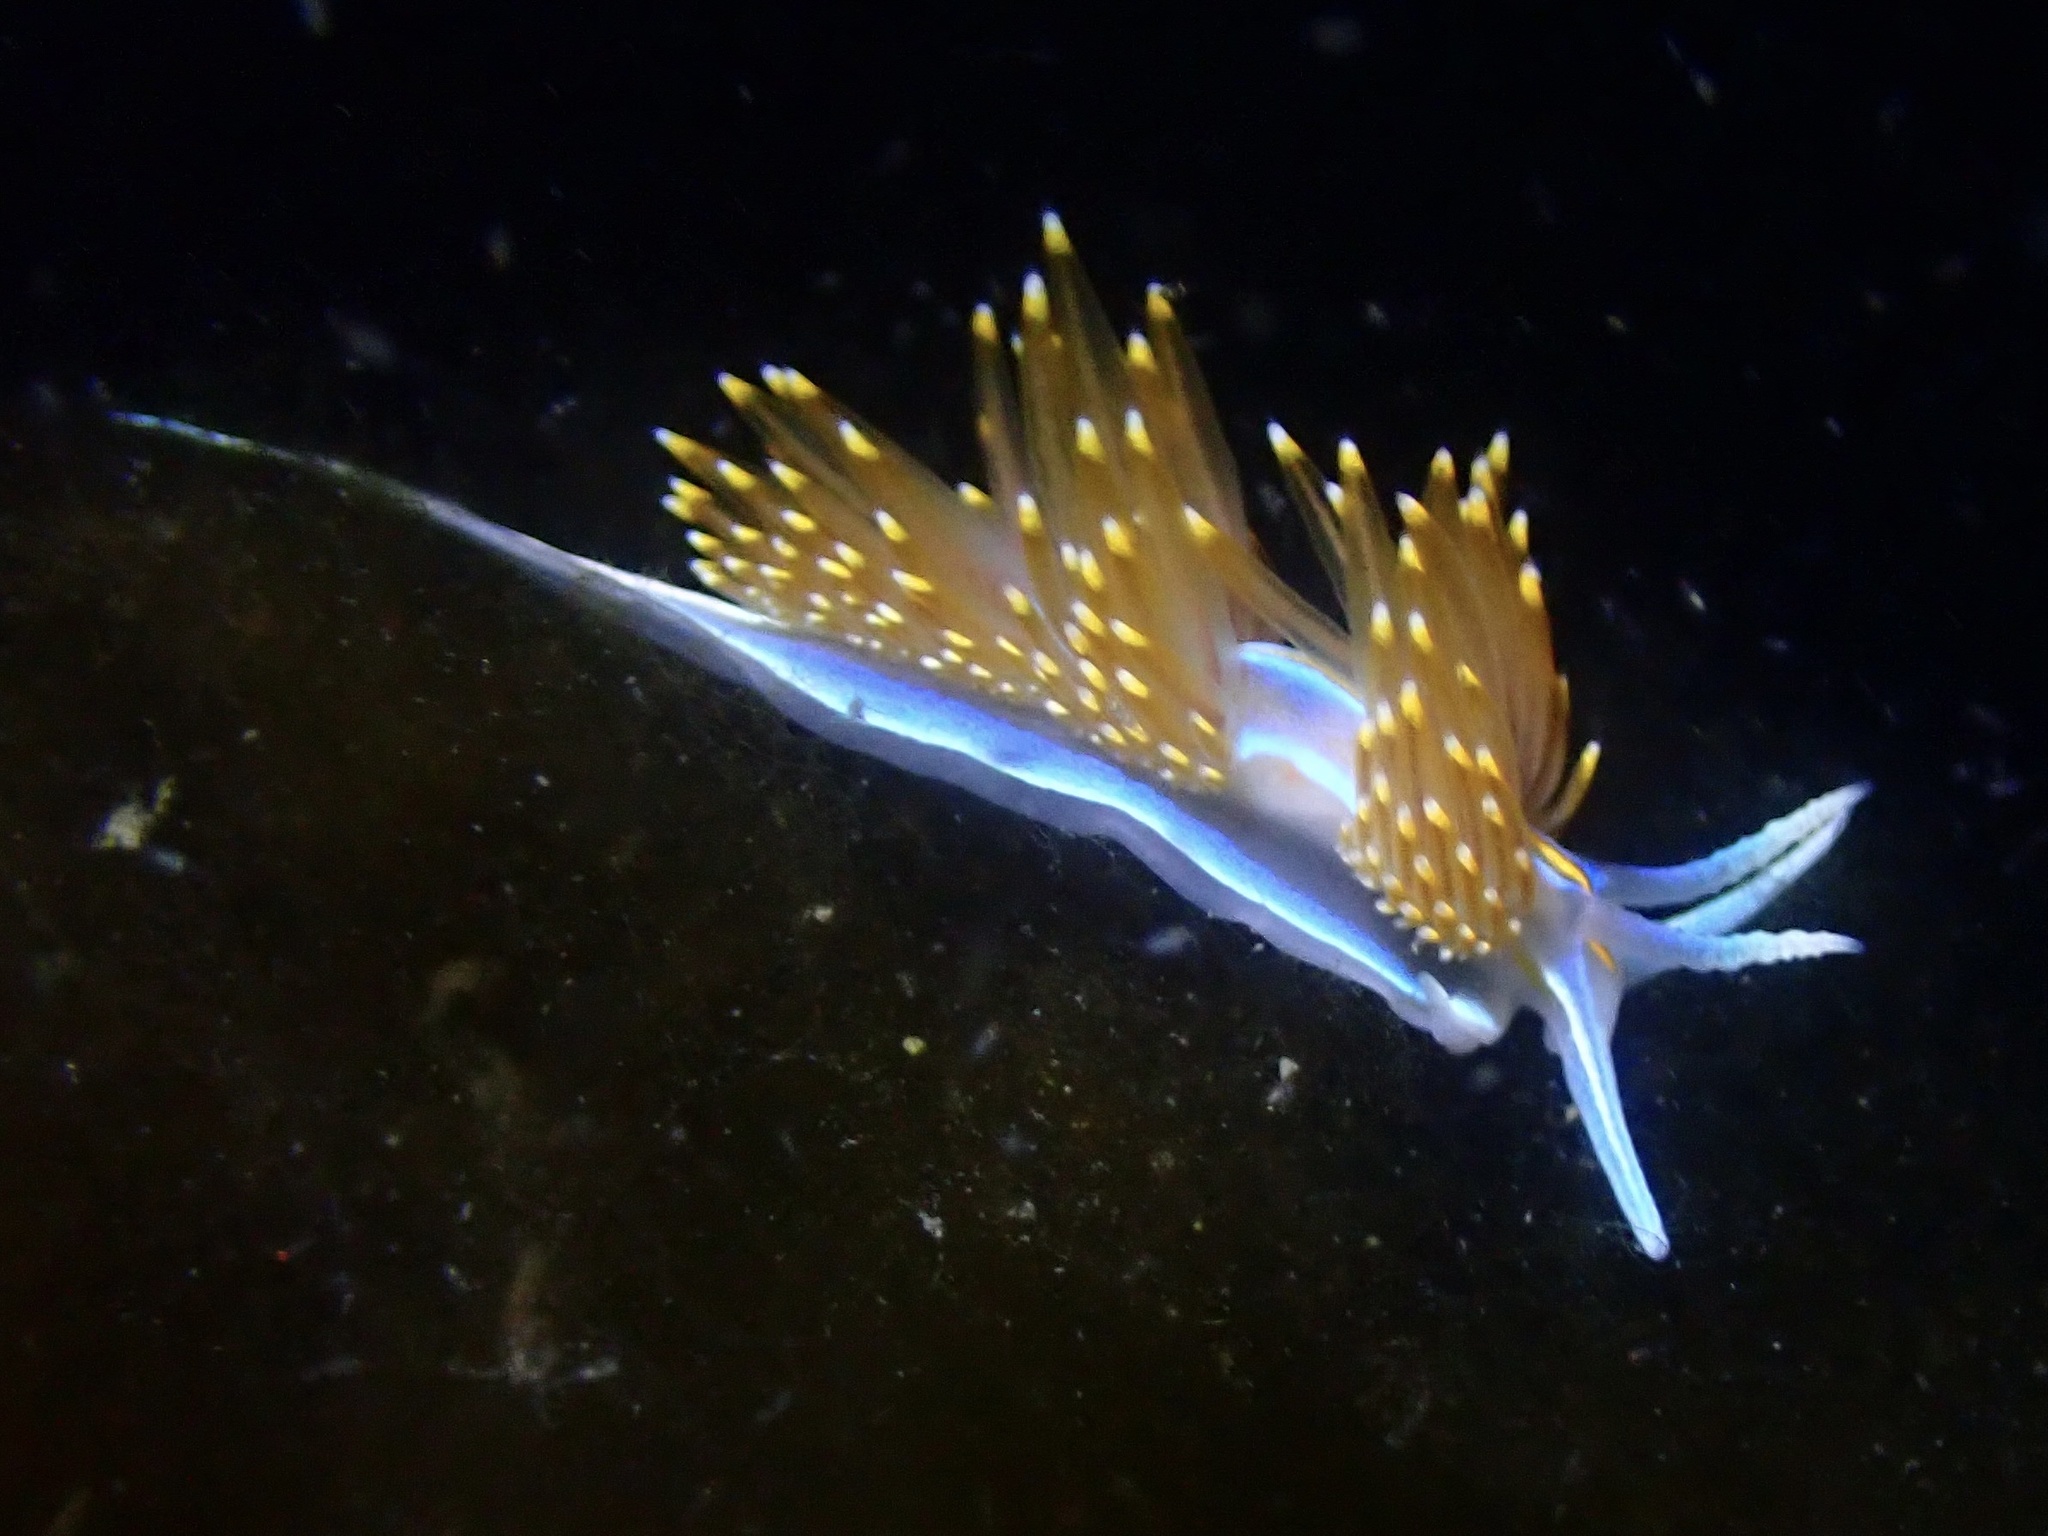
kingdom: Animalia
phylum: Mollusca
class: Gastropoda
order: Nudibranchia
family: Myrrhinidae
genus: Hermissenda
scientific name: Hermissenda opalescens
